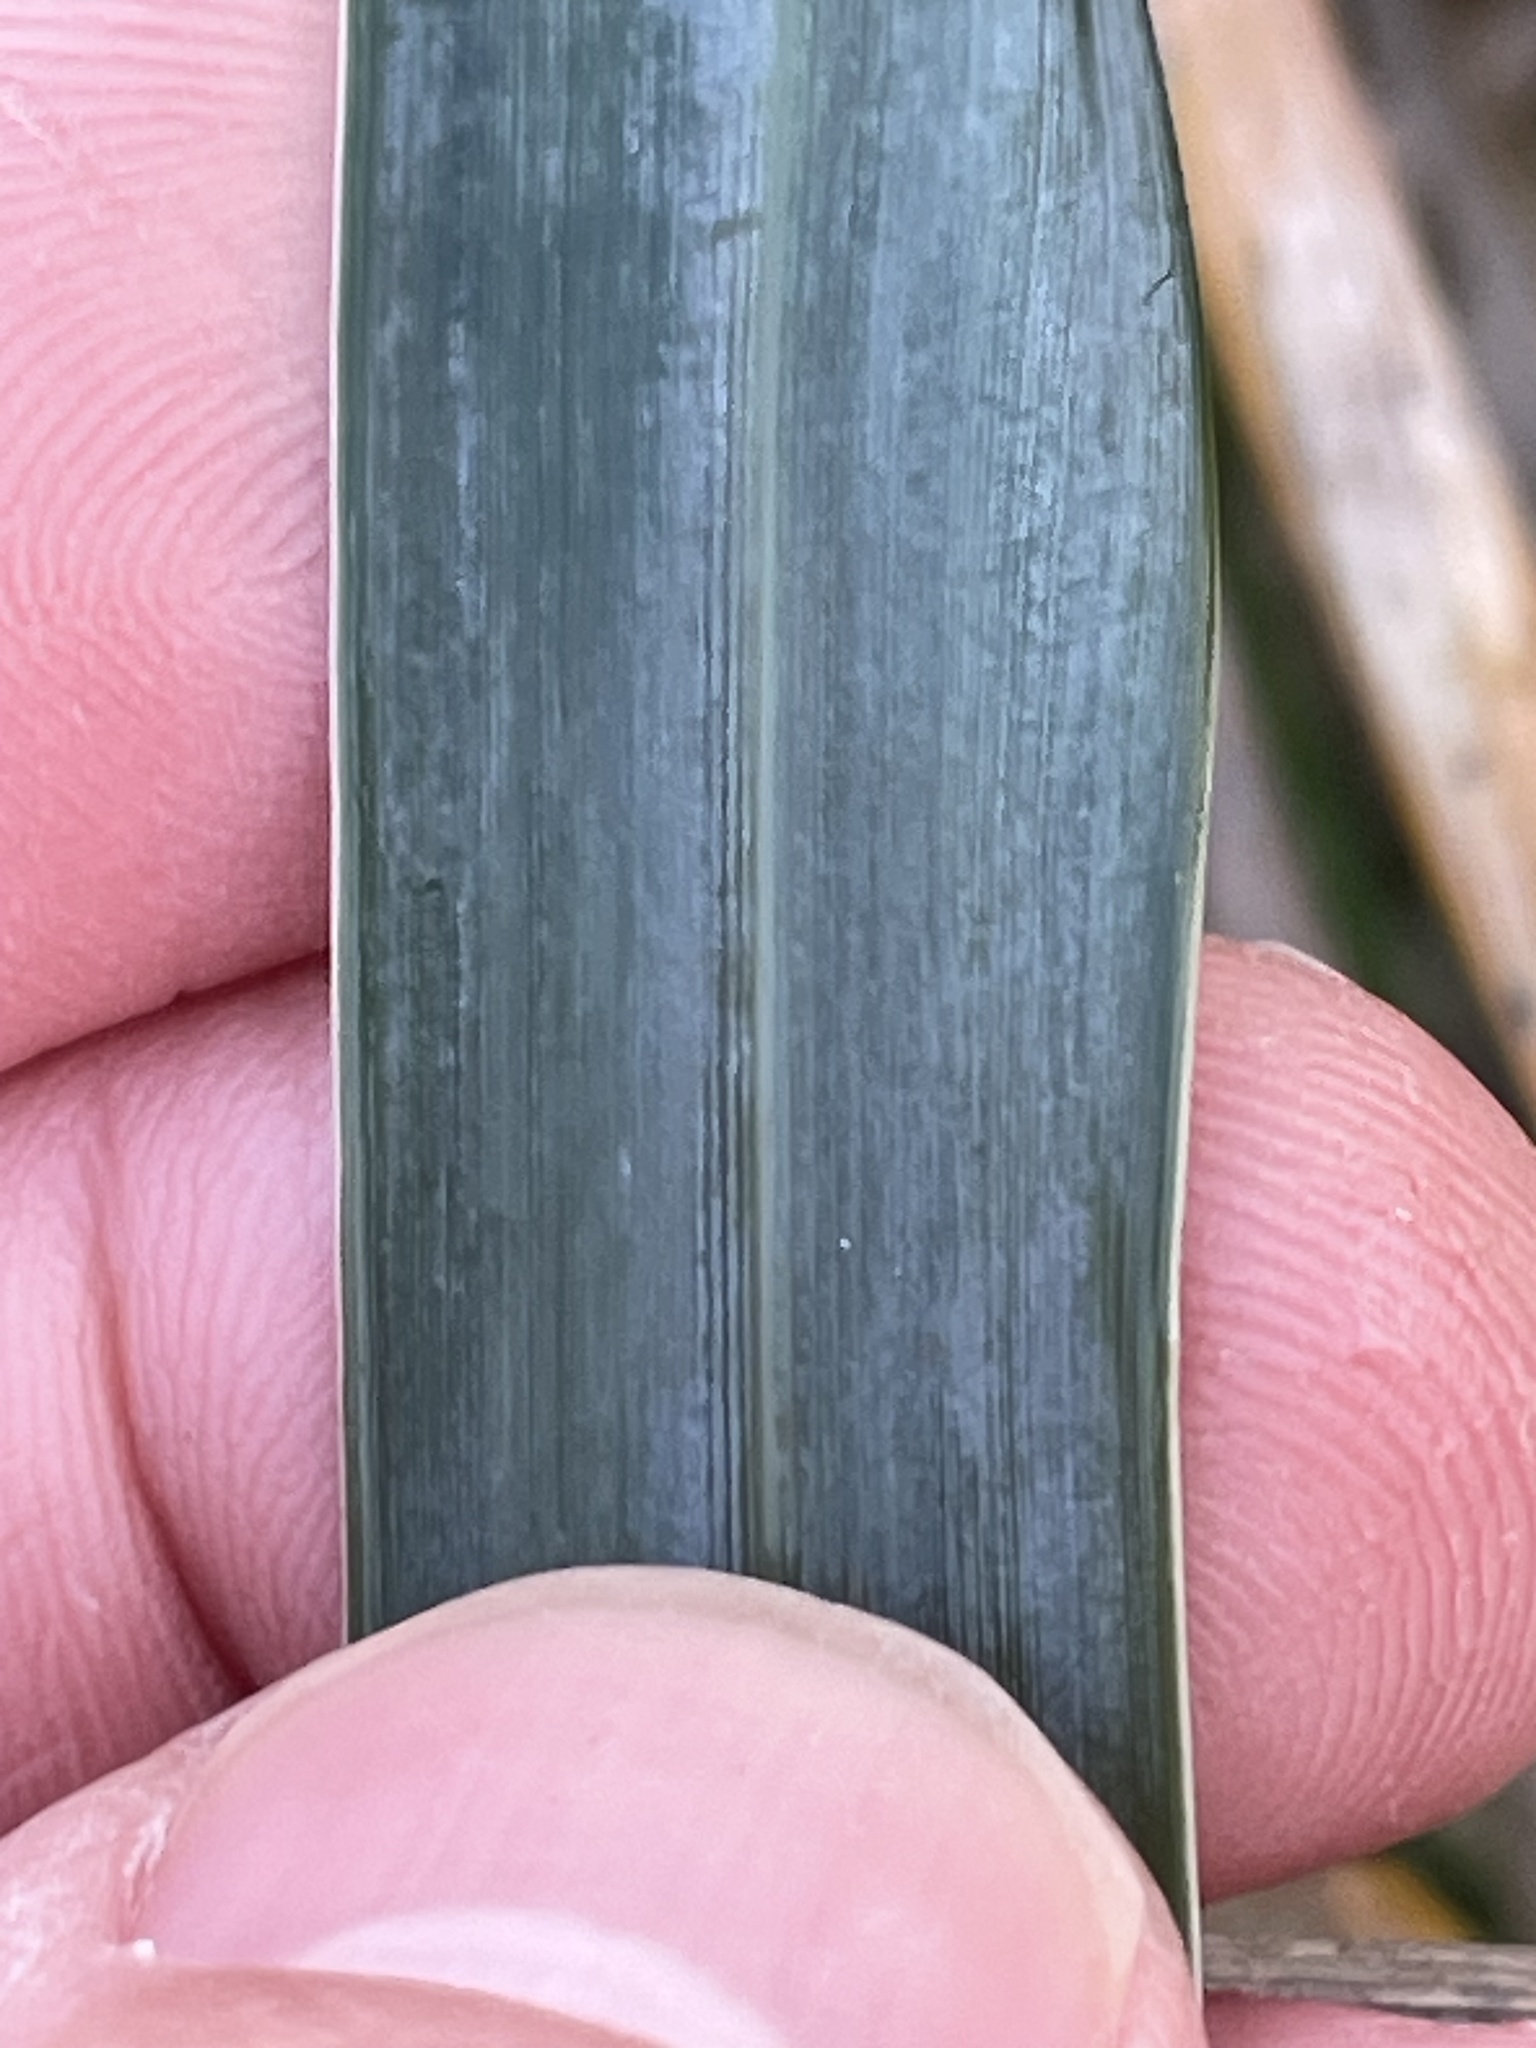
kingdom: Plantae
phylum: Tracheophyta
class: Liliopsida
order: Poales
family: Poaceae
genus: Leymus
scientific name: Leymus mollis
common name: American dune grass
